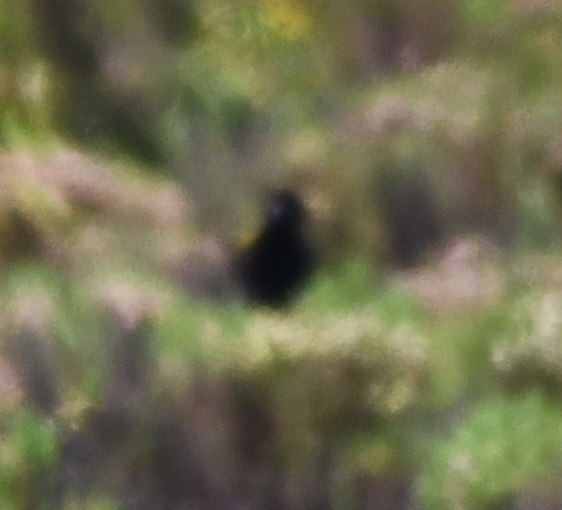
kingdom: Animalia
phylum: Chordata
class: Aves
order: Passeriformes
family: Ploceidae
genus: Euplectes
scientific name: Euplectes capensis
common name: Yellow bishop
